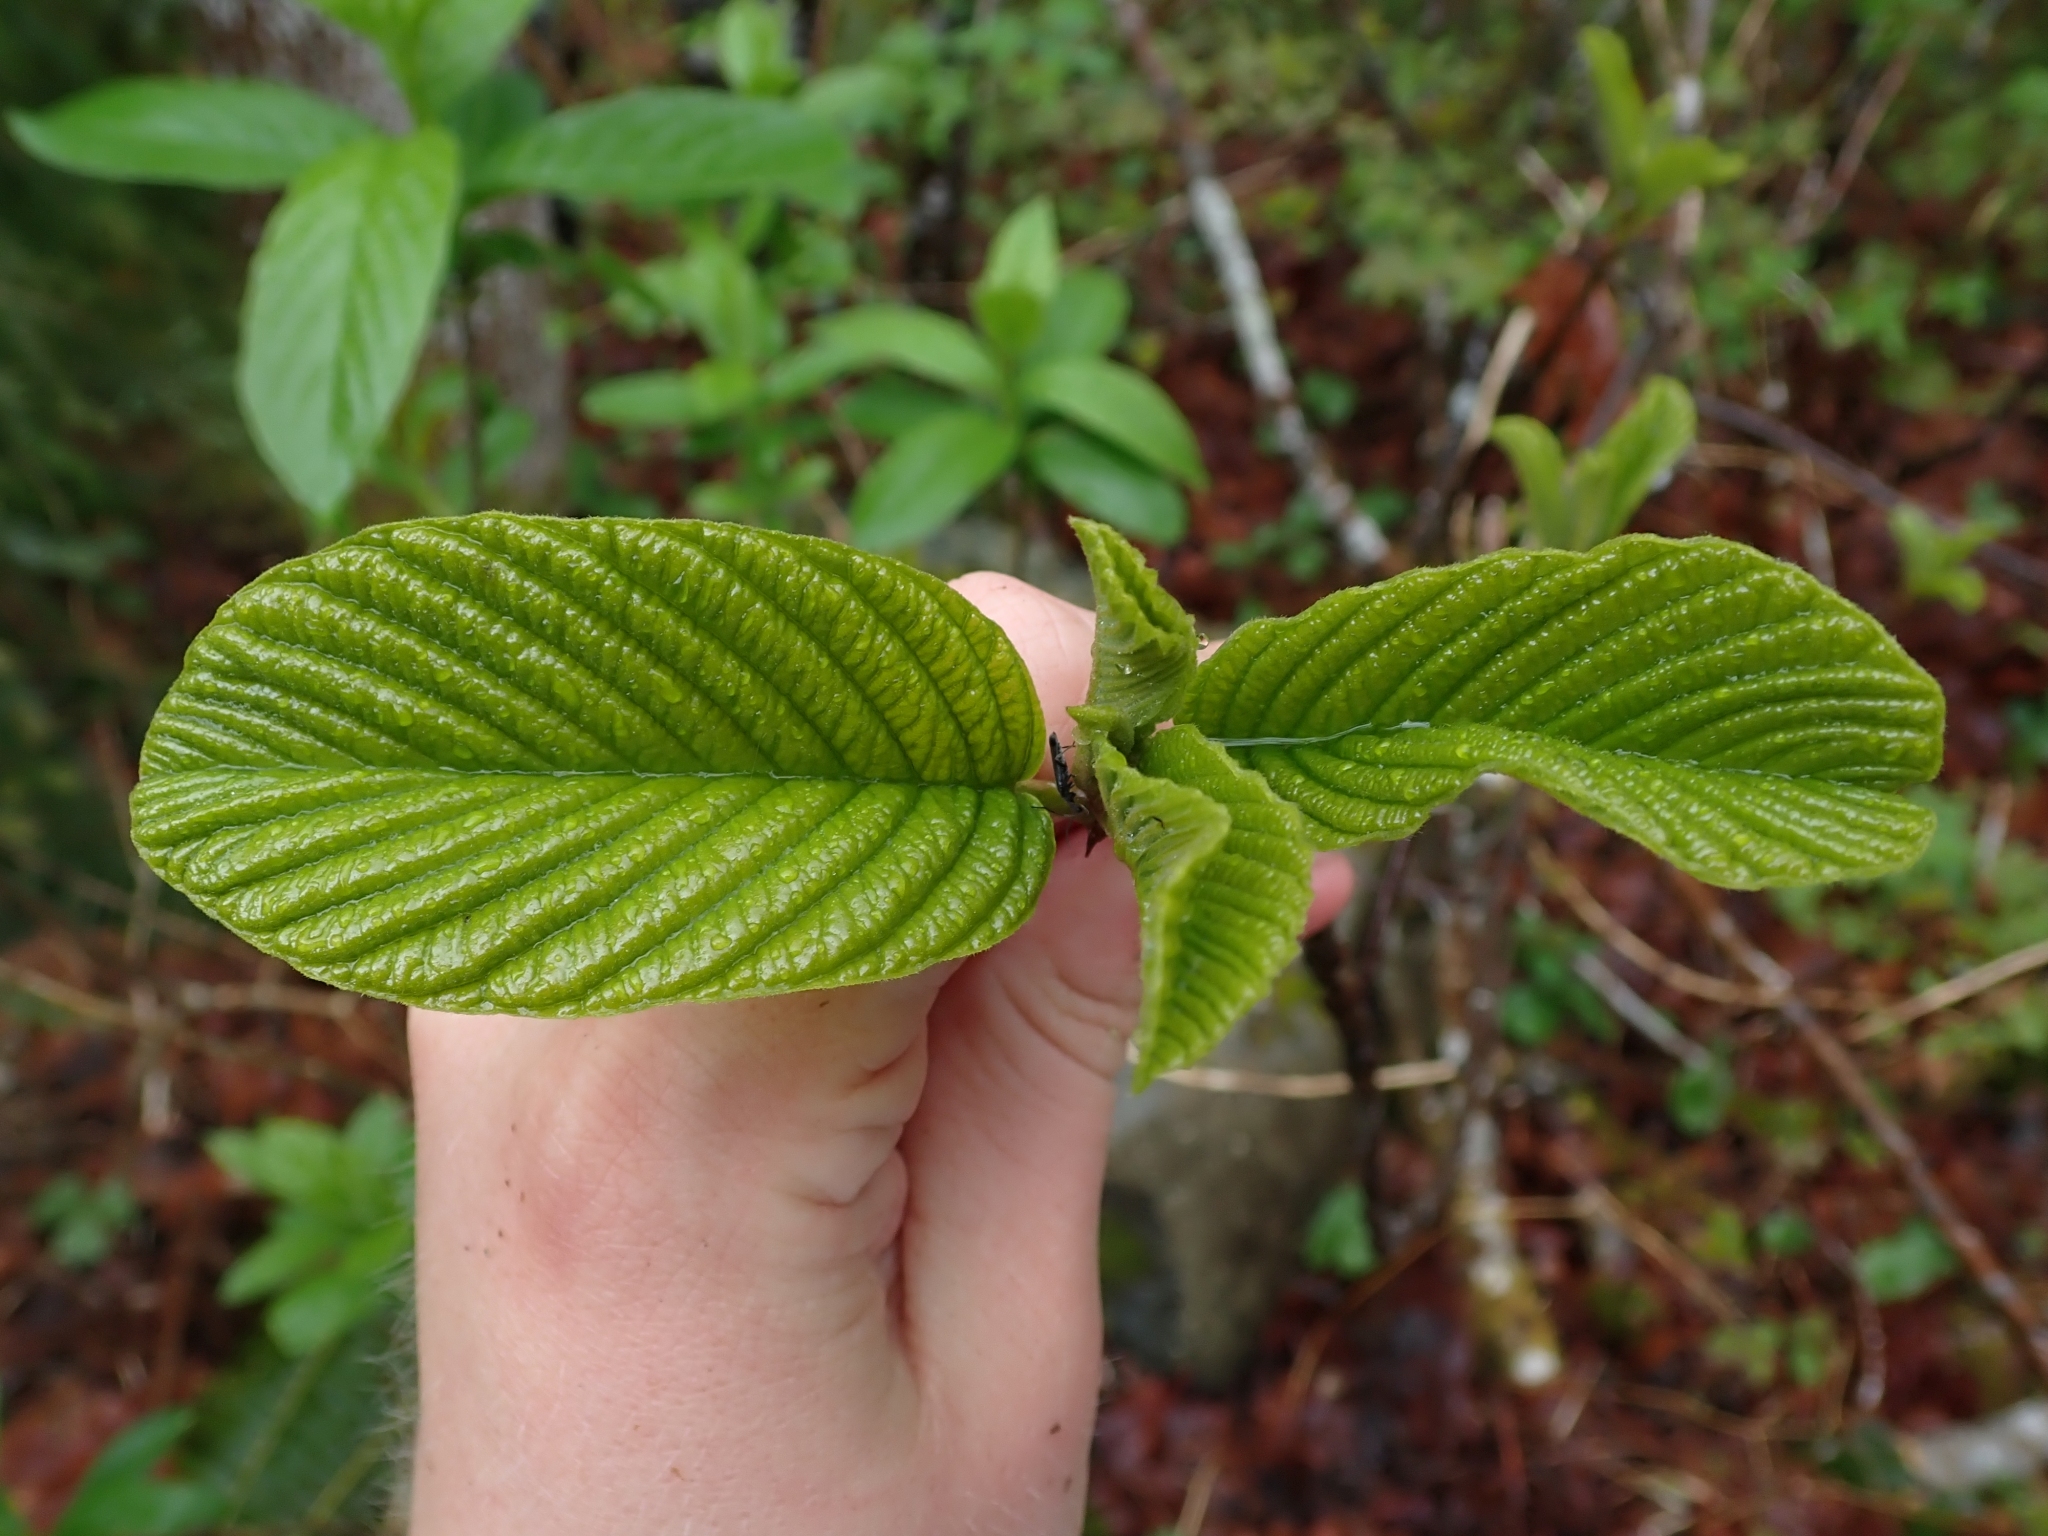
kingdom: Plantae
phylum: Tracheophyta
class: Magnoliopsida
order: Rosales
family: Rhamnaceae
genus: Frangula
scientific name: Frangula purshiana
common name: Cascara buckthorn
